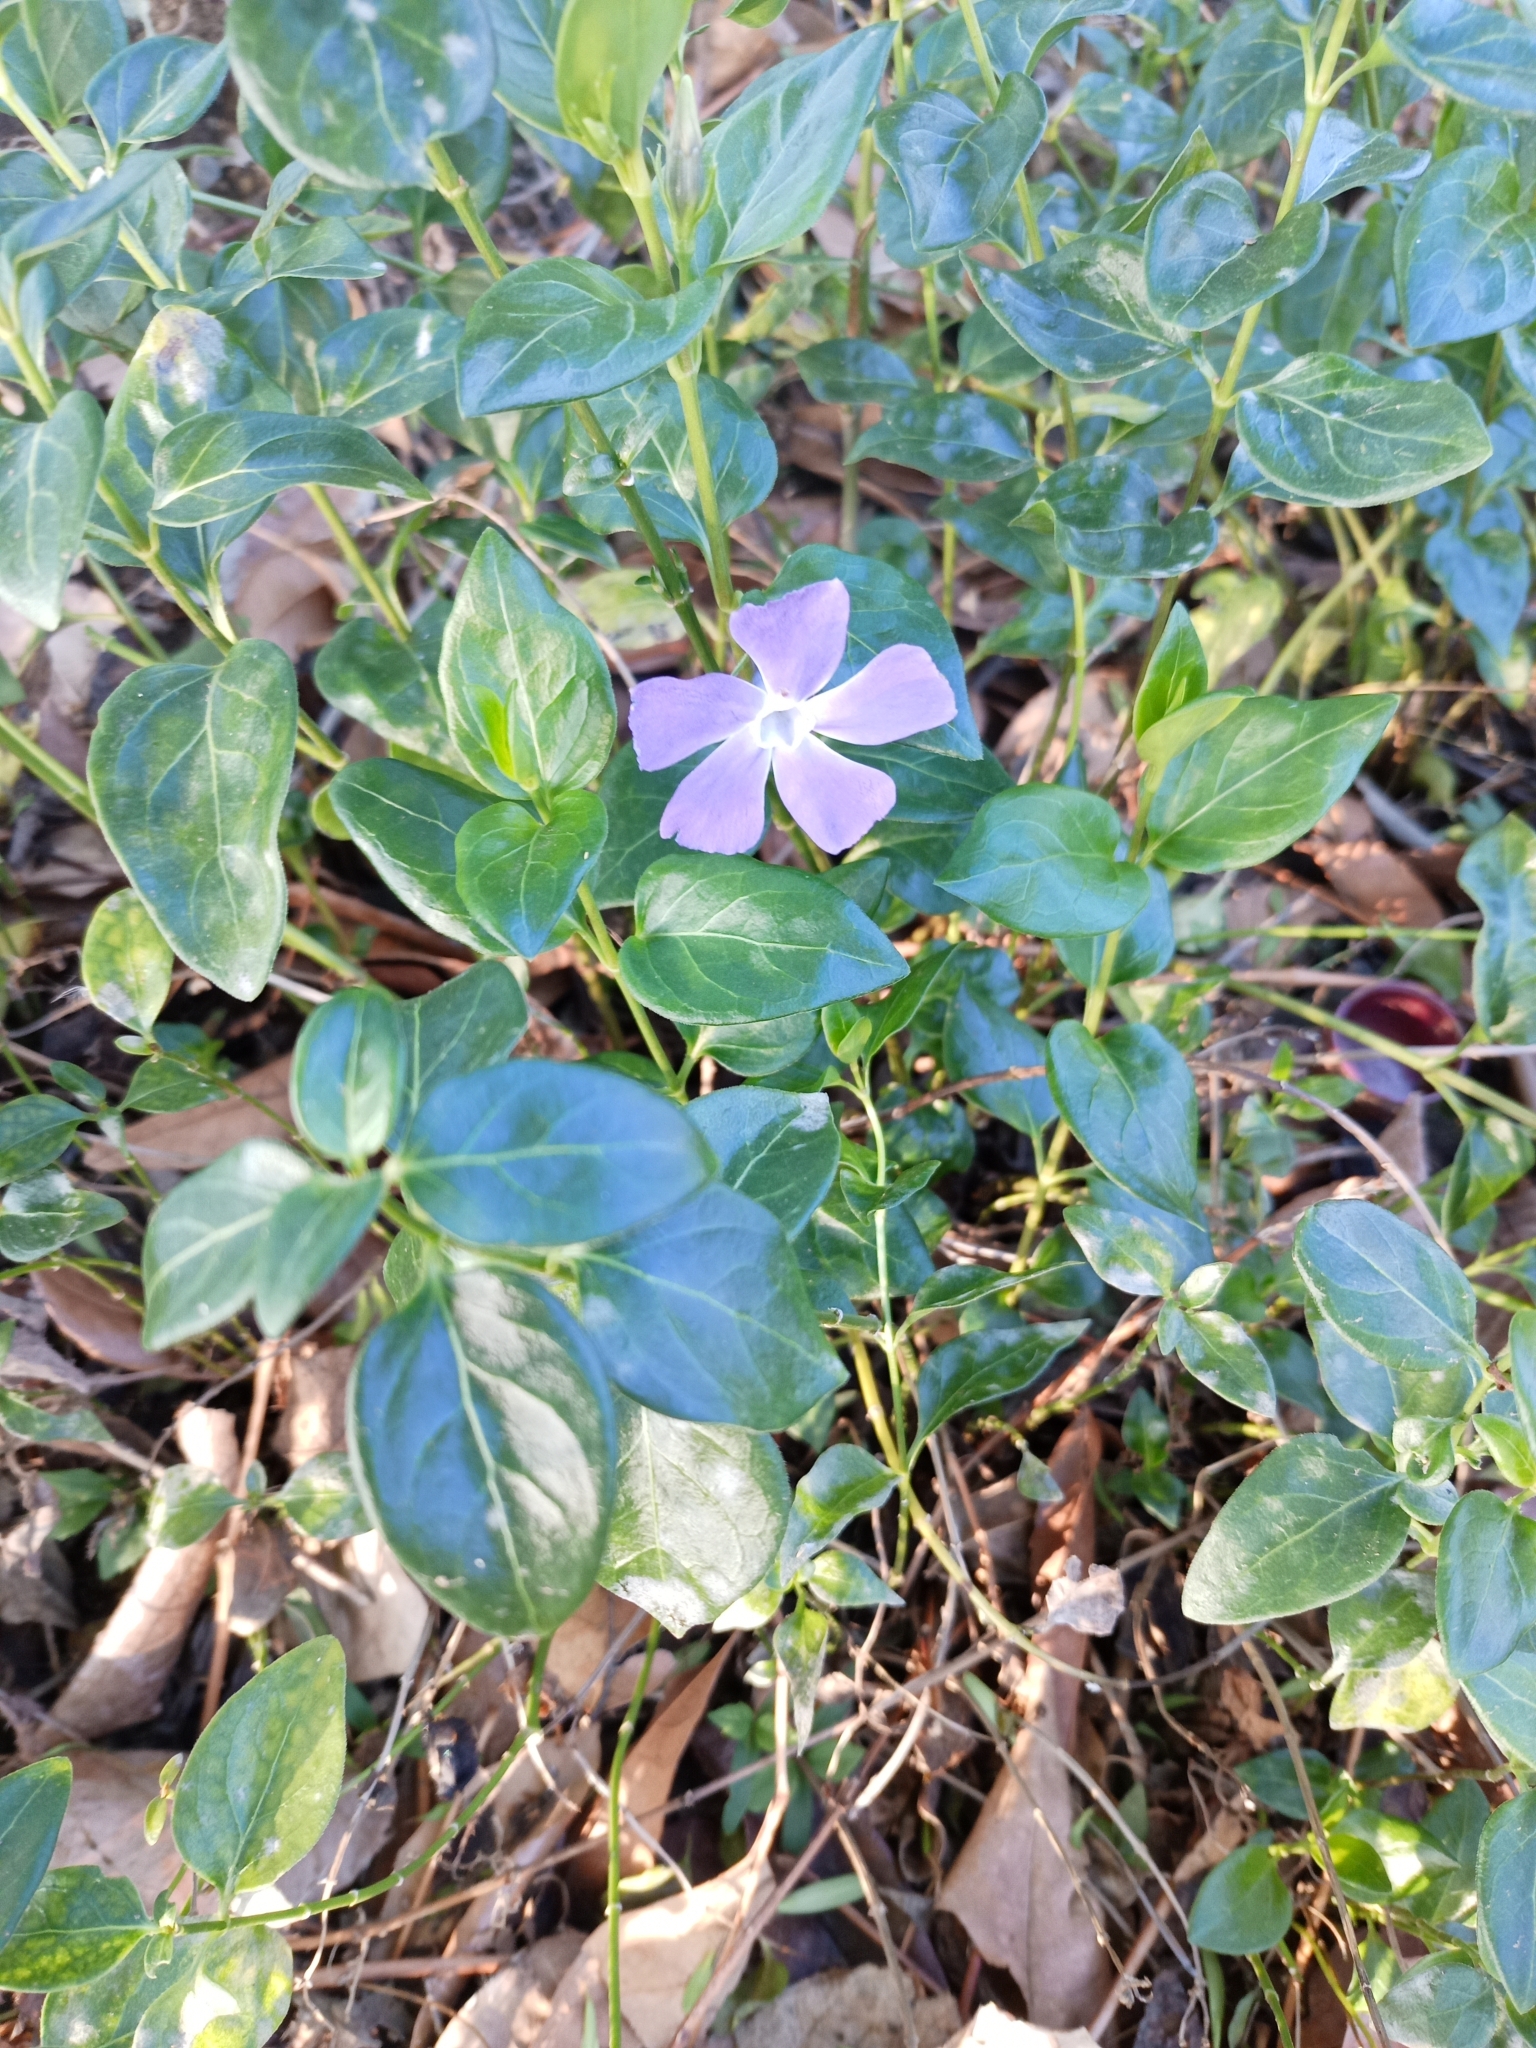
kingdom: Plantae
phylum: Tracheophyta
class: Magnoliopsida
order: Gentianales
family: Apocynaceae
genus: Vinca
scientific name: Vinca major
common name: Greater periwinkle
